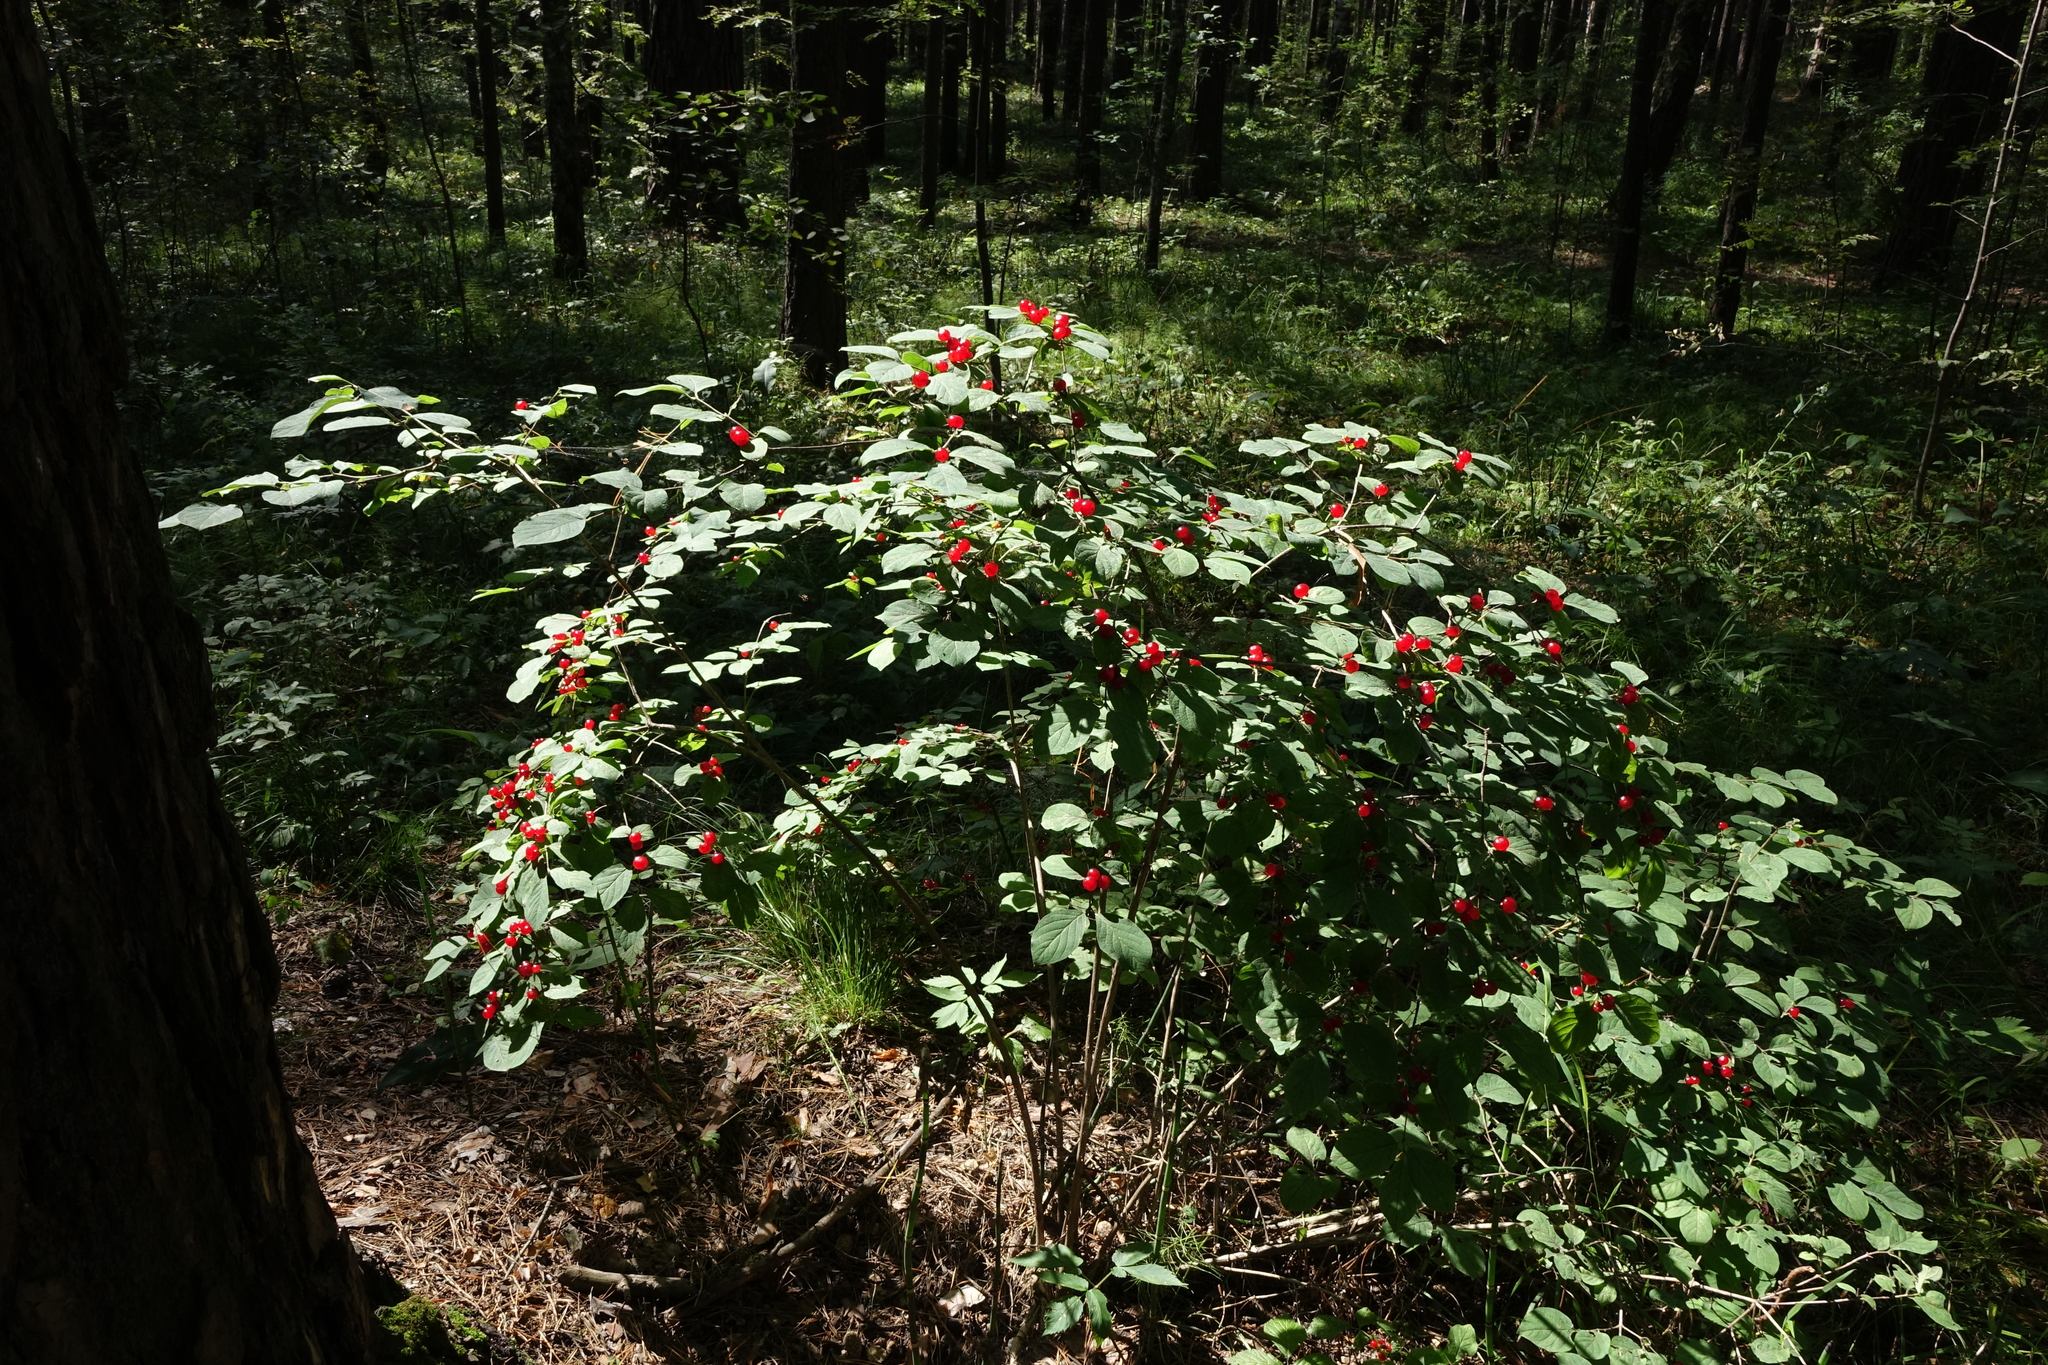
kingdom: Plantae
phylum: Tracheophyta
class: Magnoliopsida
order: Dipsacales
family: Caprifoliaceae
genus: Lonicera
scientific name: Lonicera xylosteum
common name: Fly honeysuckle
